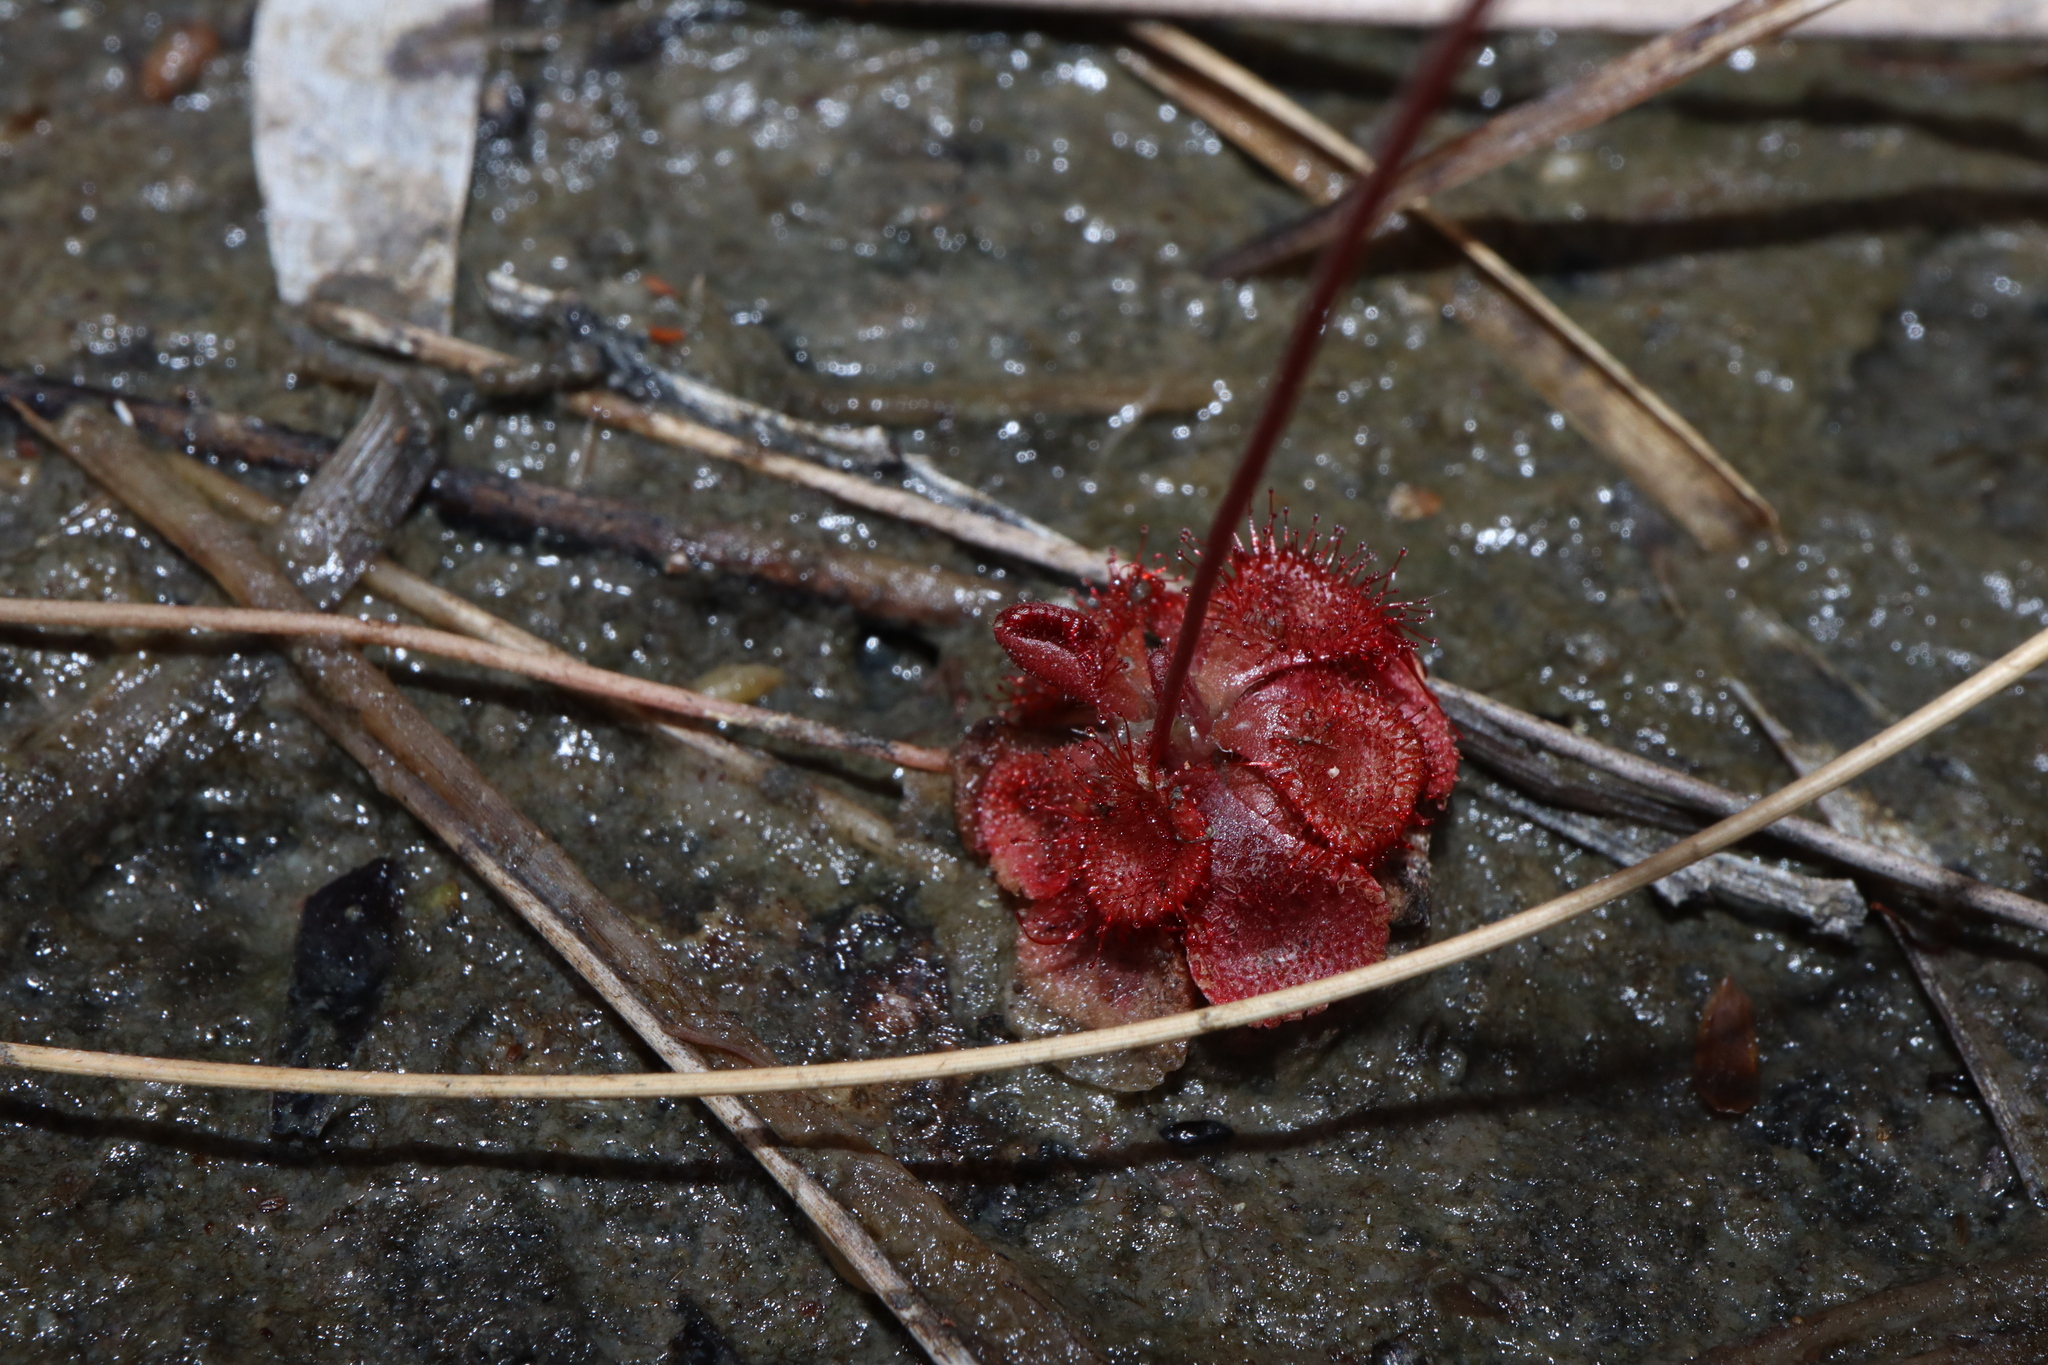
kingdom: Plantae
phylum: Tracheophyta
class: Magnoliopsida
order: Caryophyllales
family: Droseraceae
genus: Drosera
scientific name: Drosera spatulata
